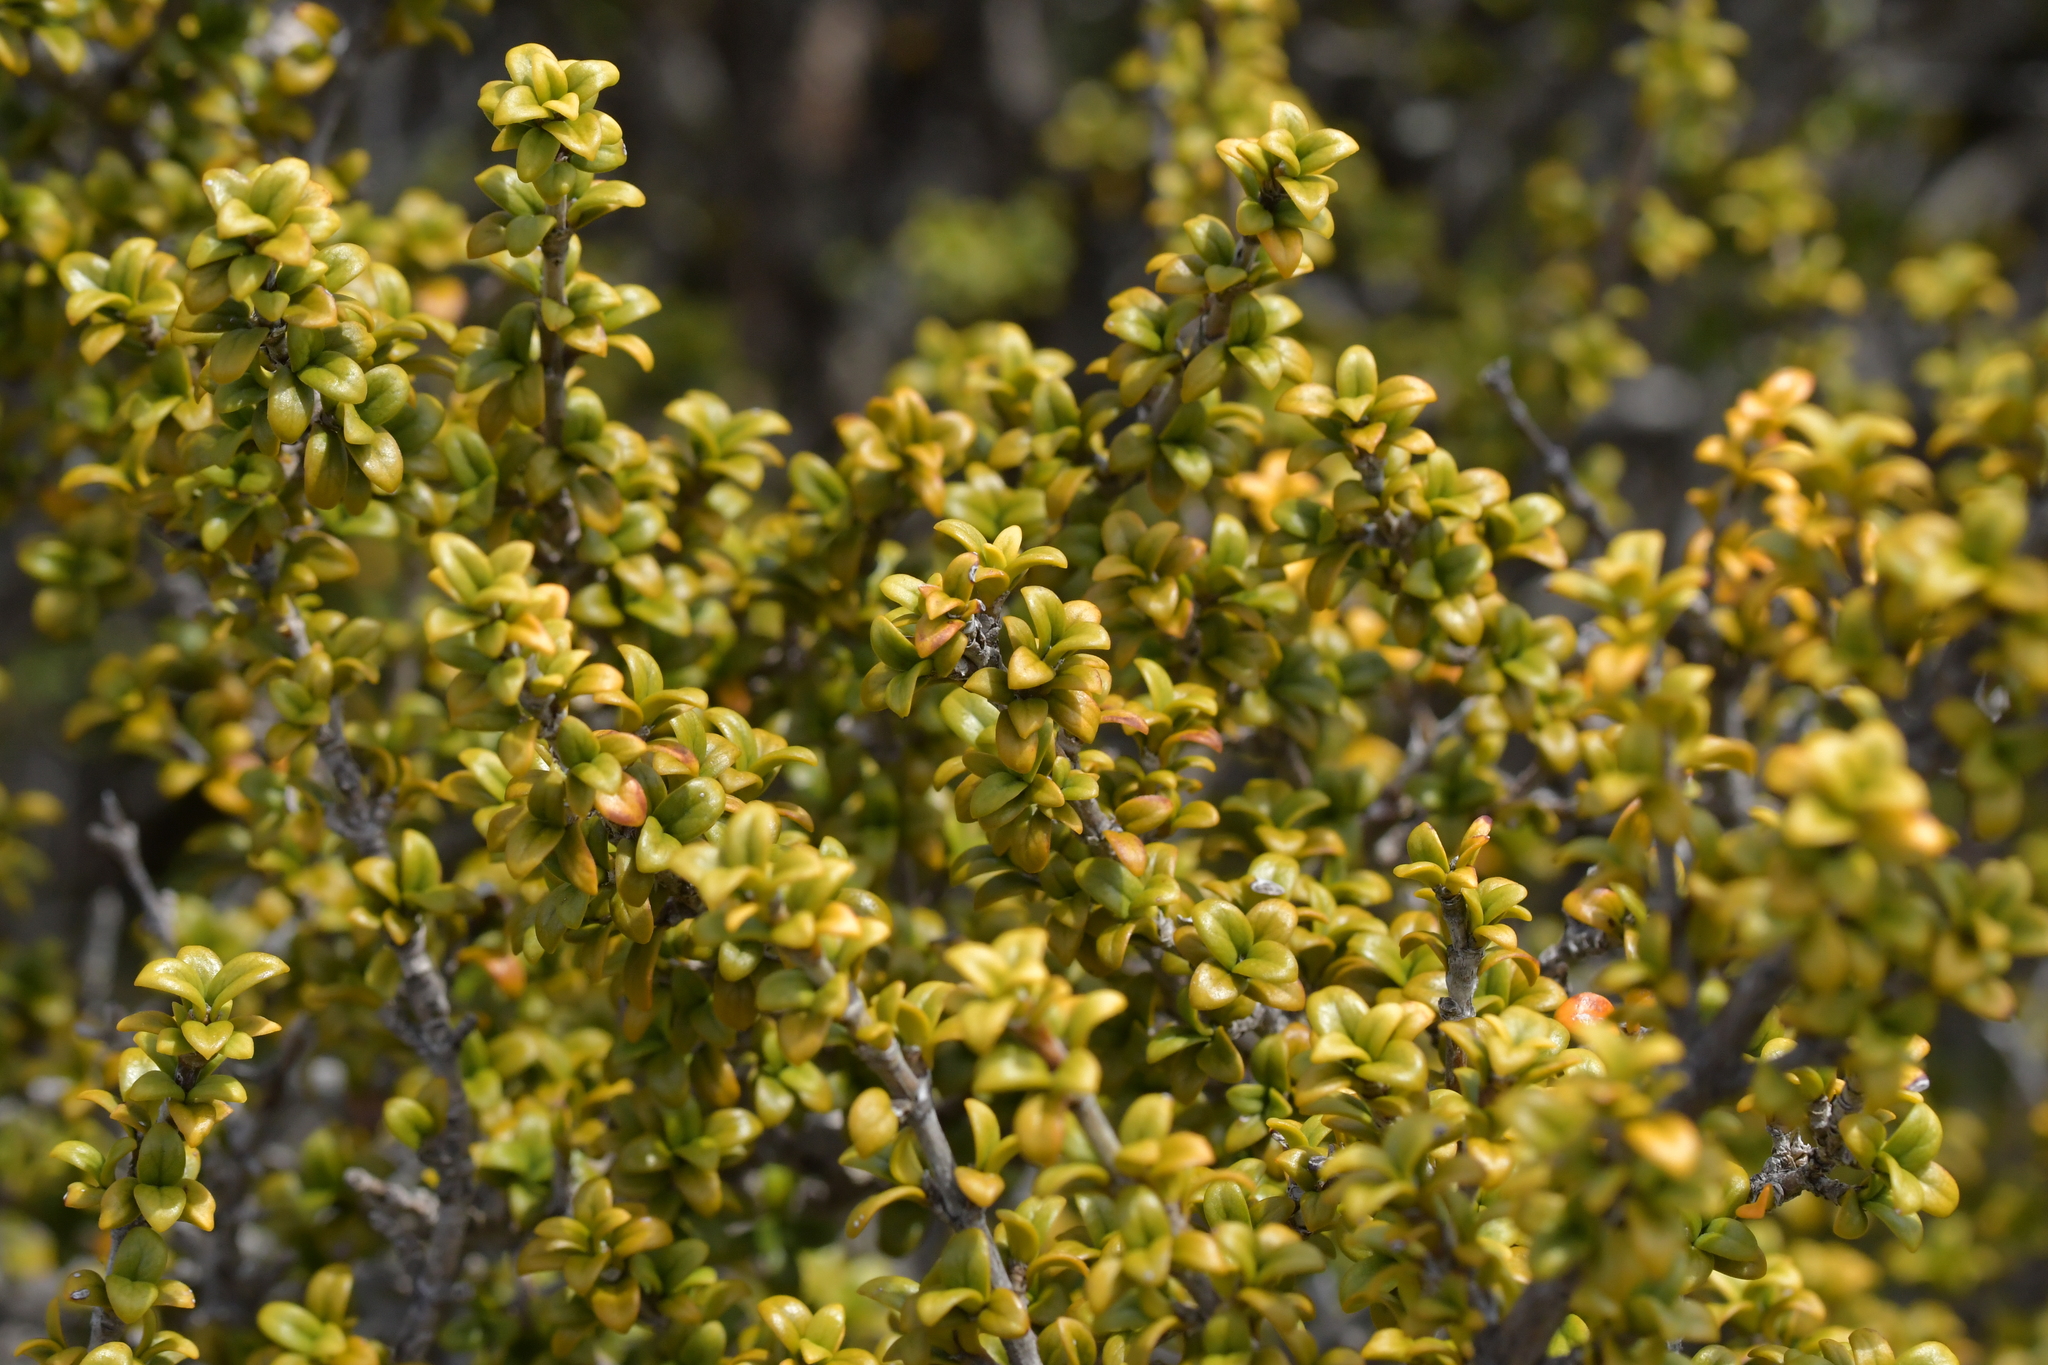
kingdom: Plantae
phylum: Tracheophyta
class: Magnoliopsida
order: Gentianales
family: Rubiaceae
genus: Coprosma
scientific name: Coprosma pseudocuneata
